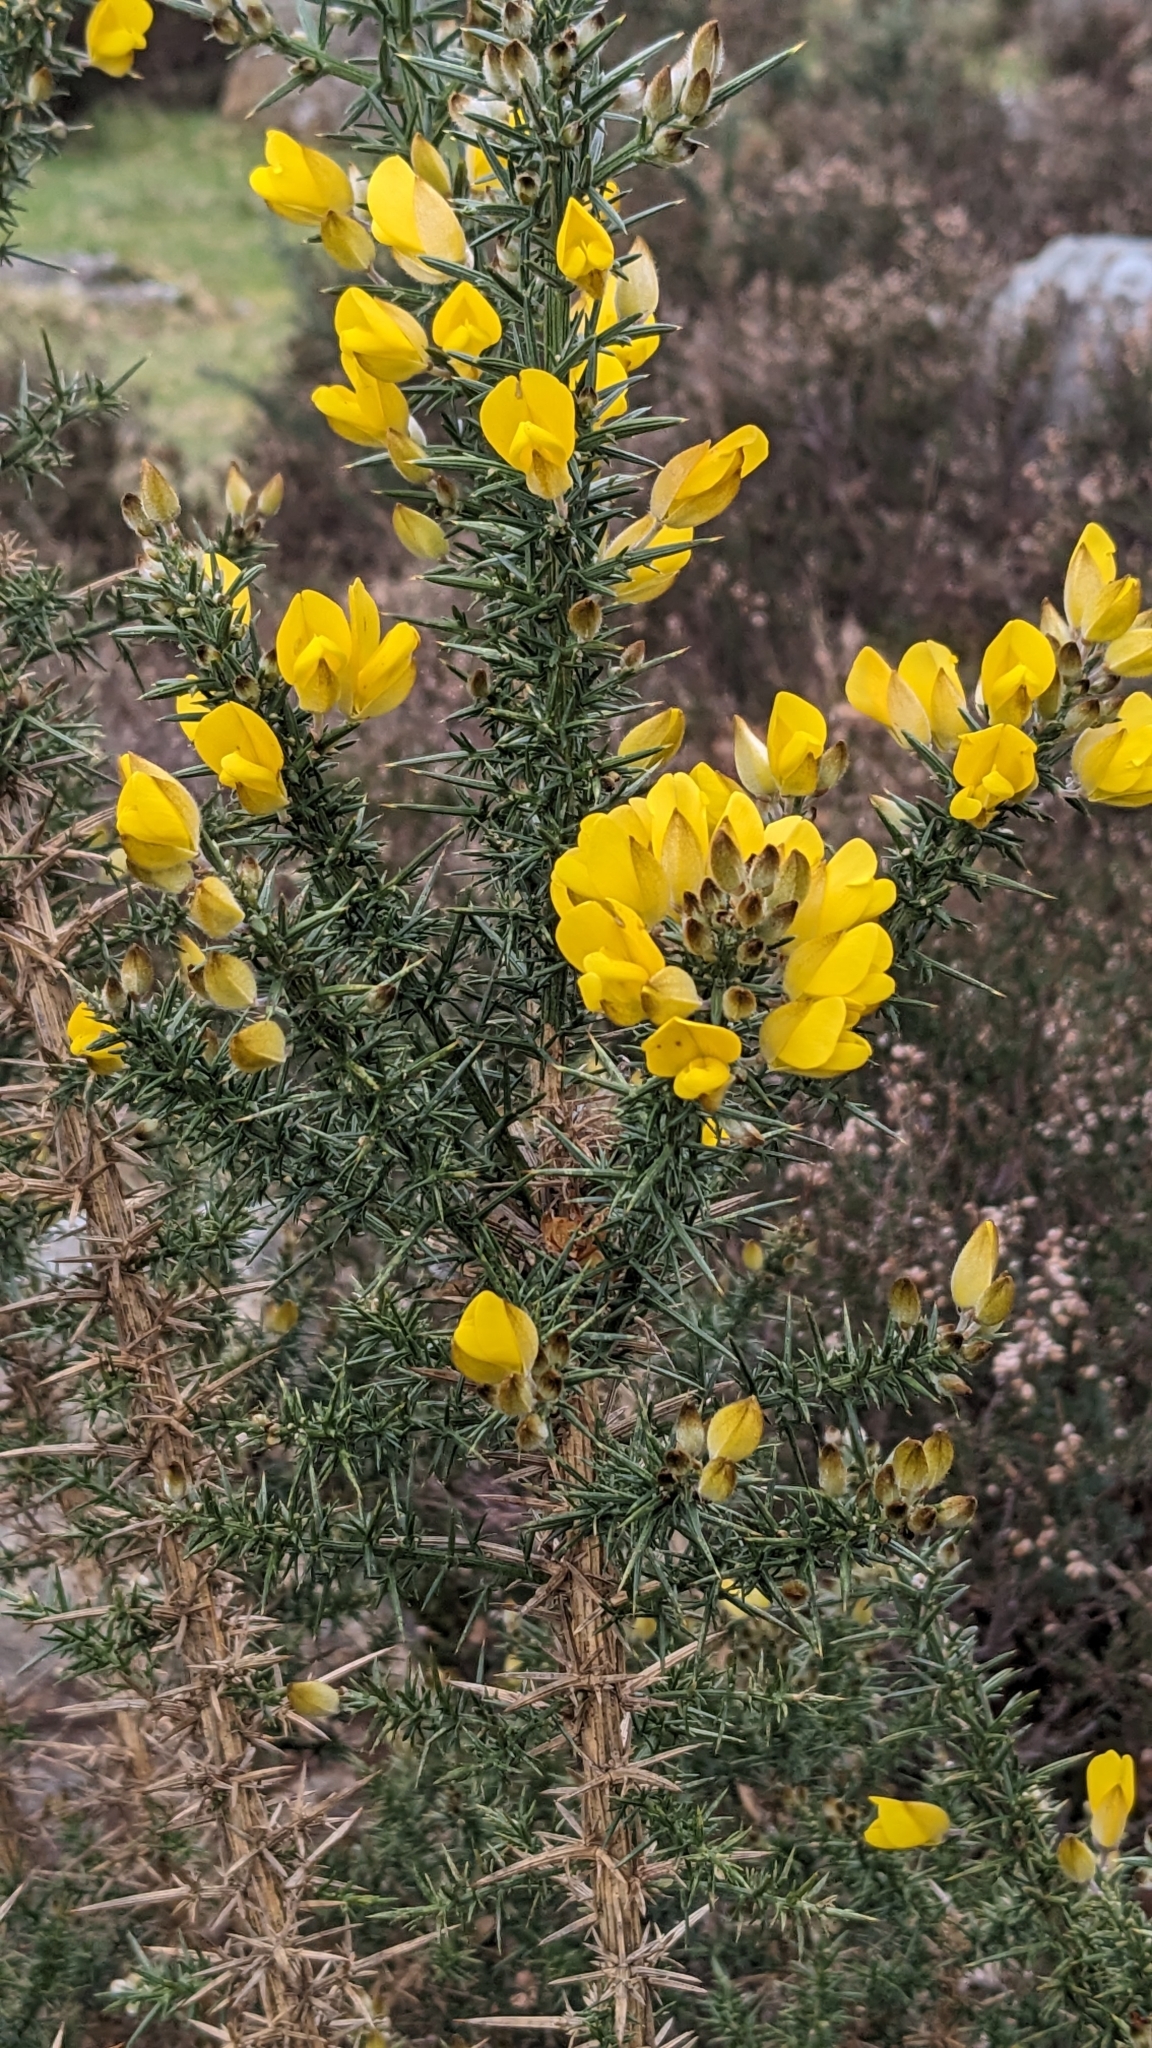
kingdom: Plantae
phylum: Tracheophyta
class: Magnoliopsida
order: Fabales
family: Fabaceae
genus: Ulex
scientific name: Ulex europaeus
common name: Common gorse
